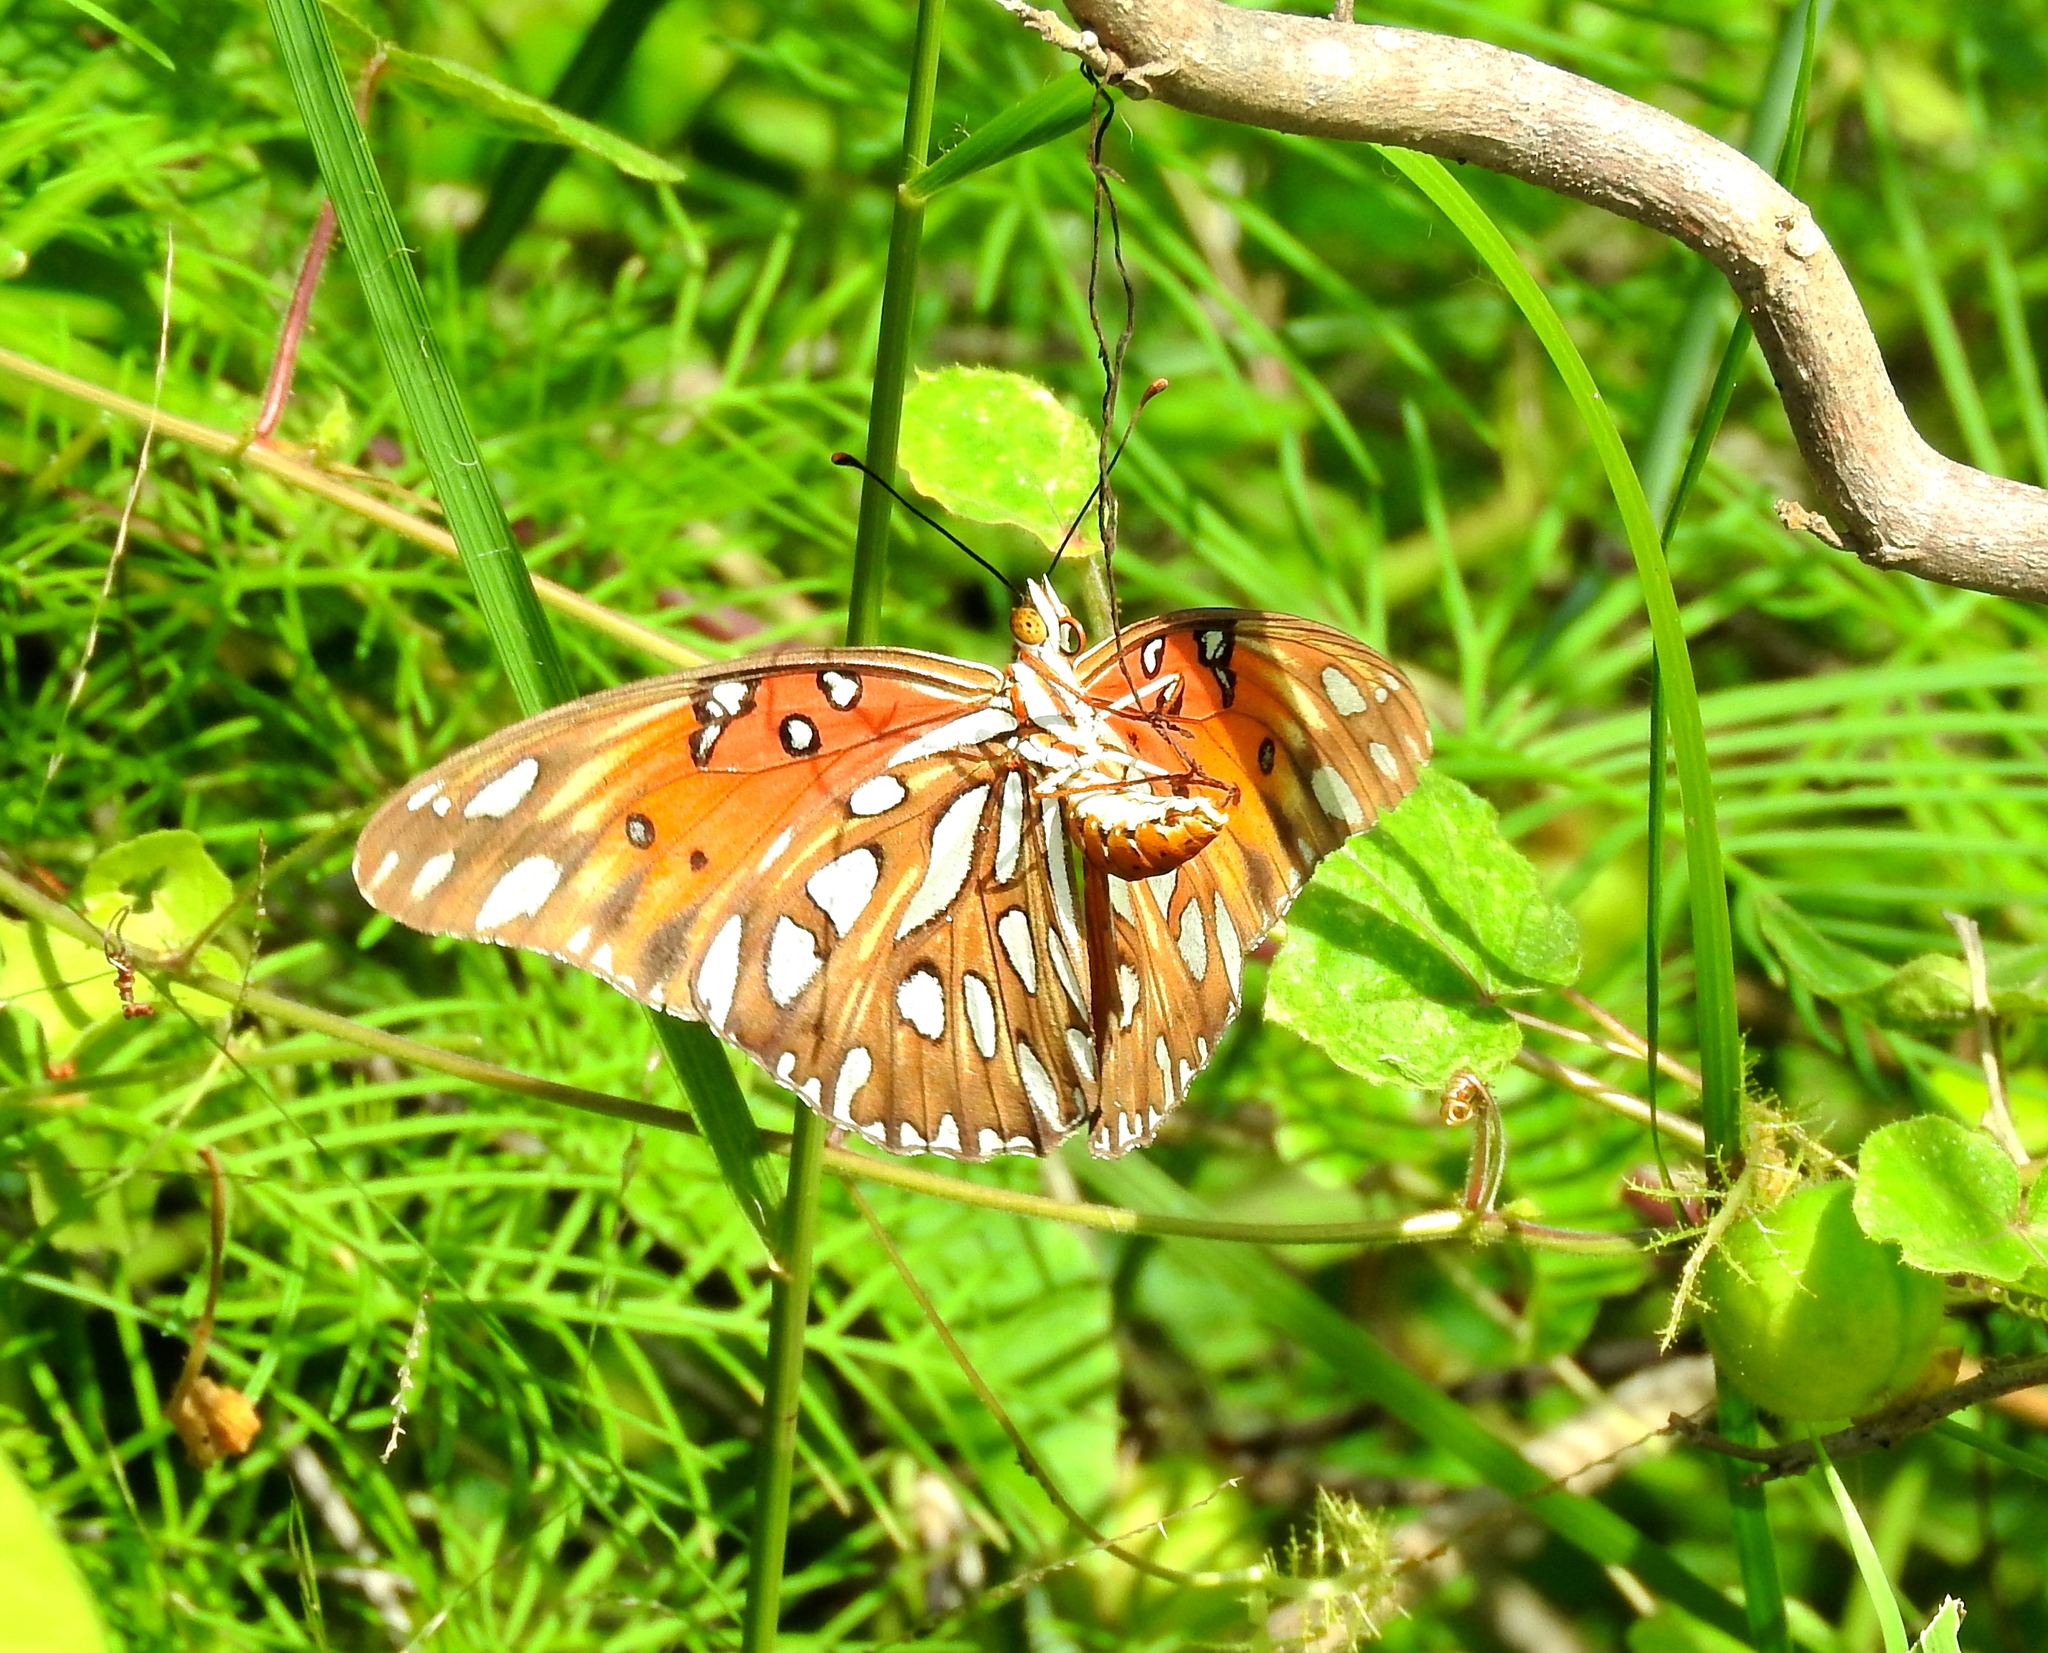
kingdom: Animalia
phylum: Arthropoda
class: Insecta
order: Lepidoptera
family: Nymphalidae
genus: Dione
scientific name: Dione vanillae
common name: Gulf fritillary
